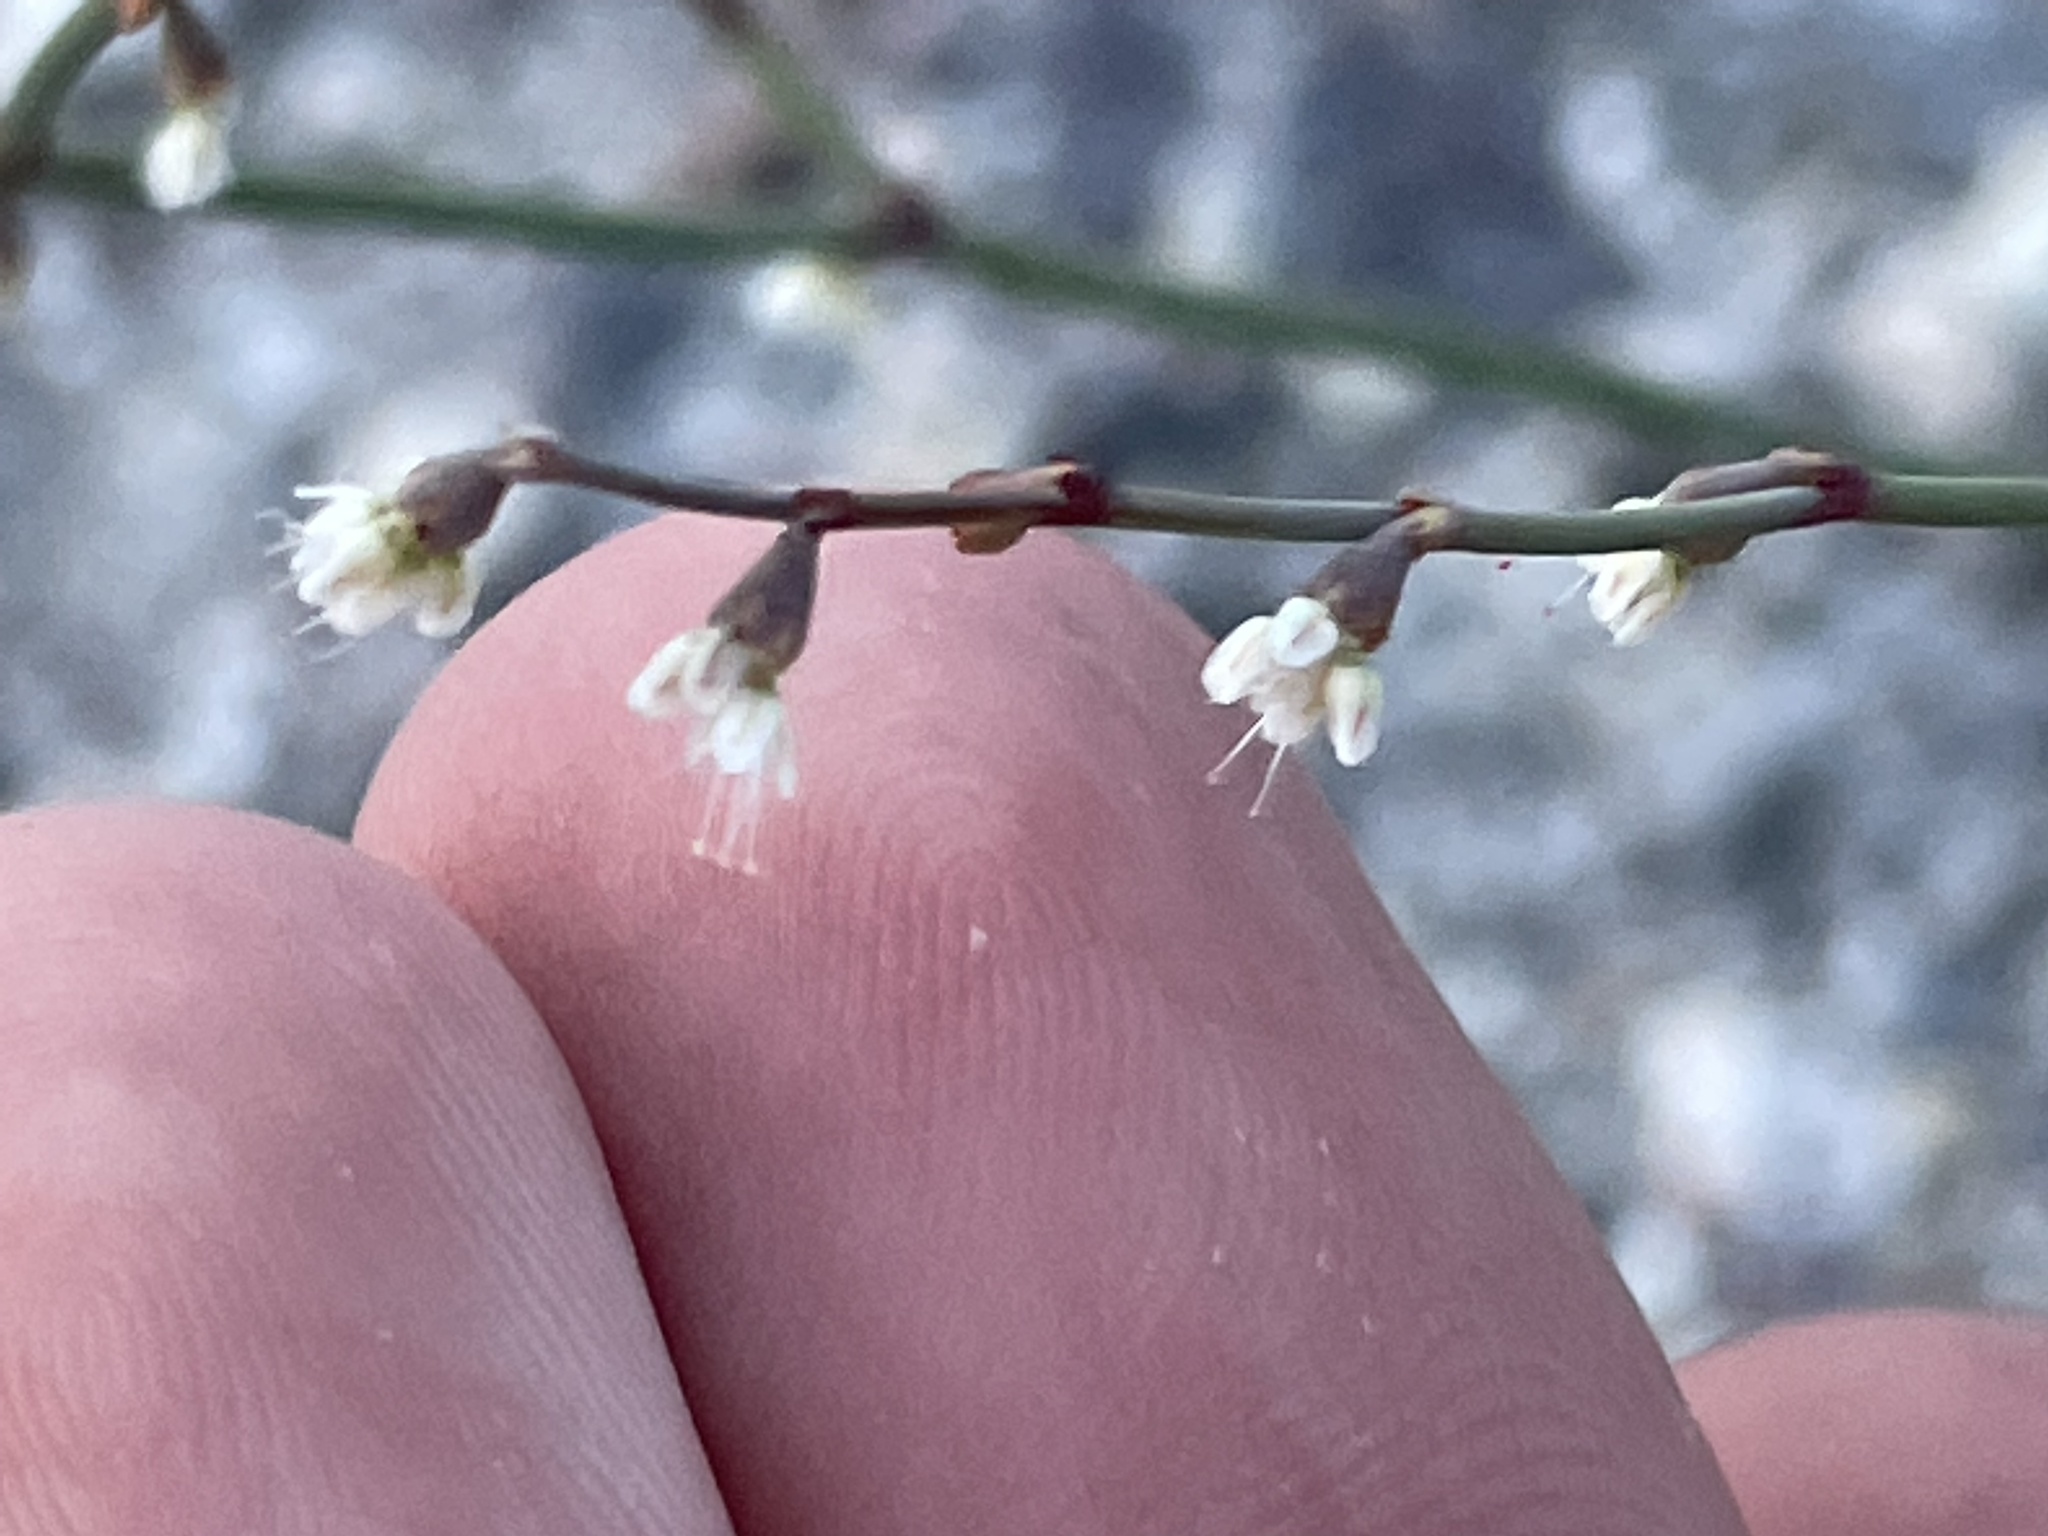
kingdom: Plantae
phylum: Tracheophyta
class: Magnoliopsida
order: Caryophyllales
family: Polygonaceae
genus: Eriogonum
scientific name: Eriogonum deflexum
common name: Skeleton-weed
